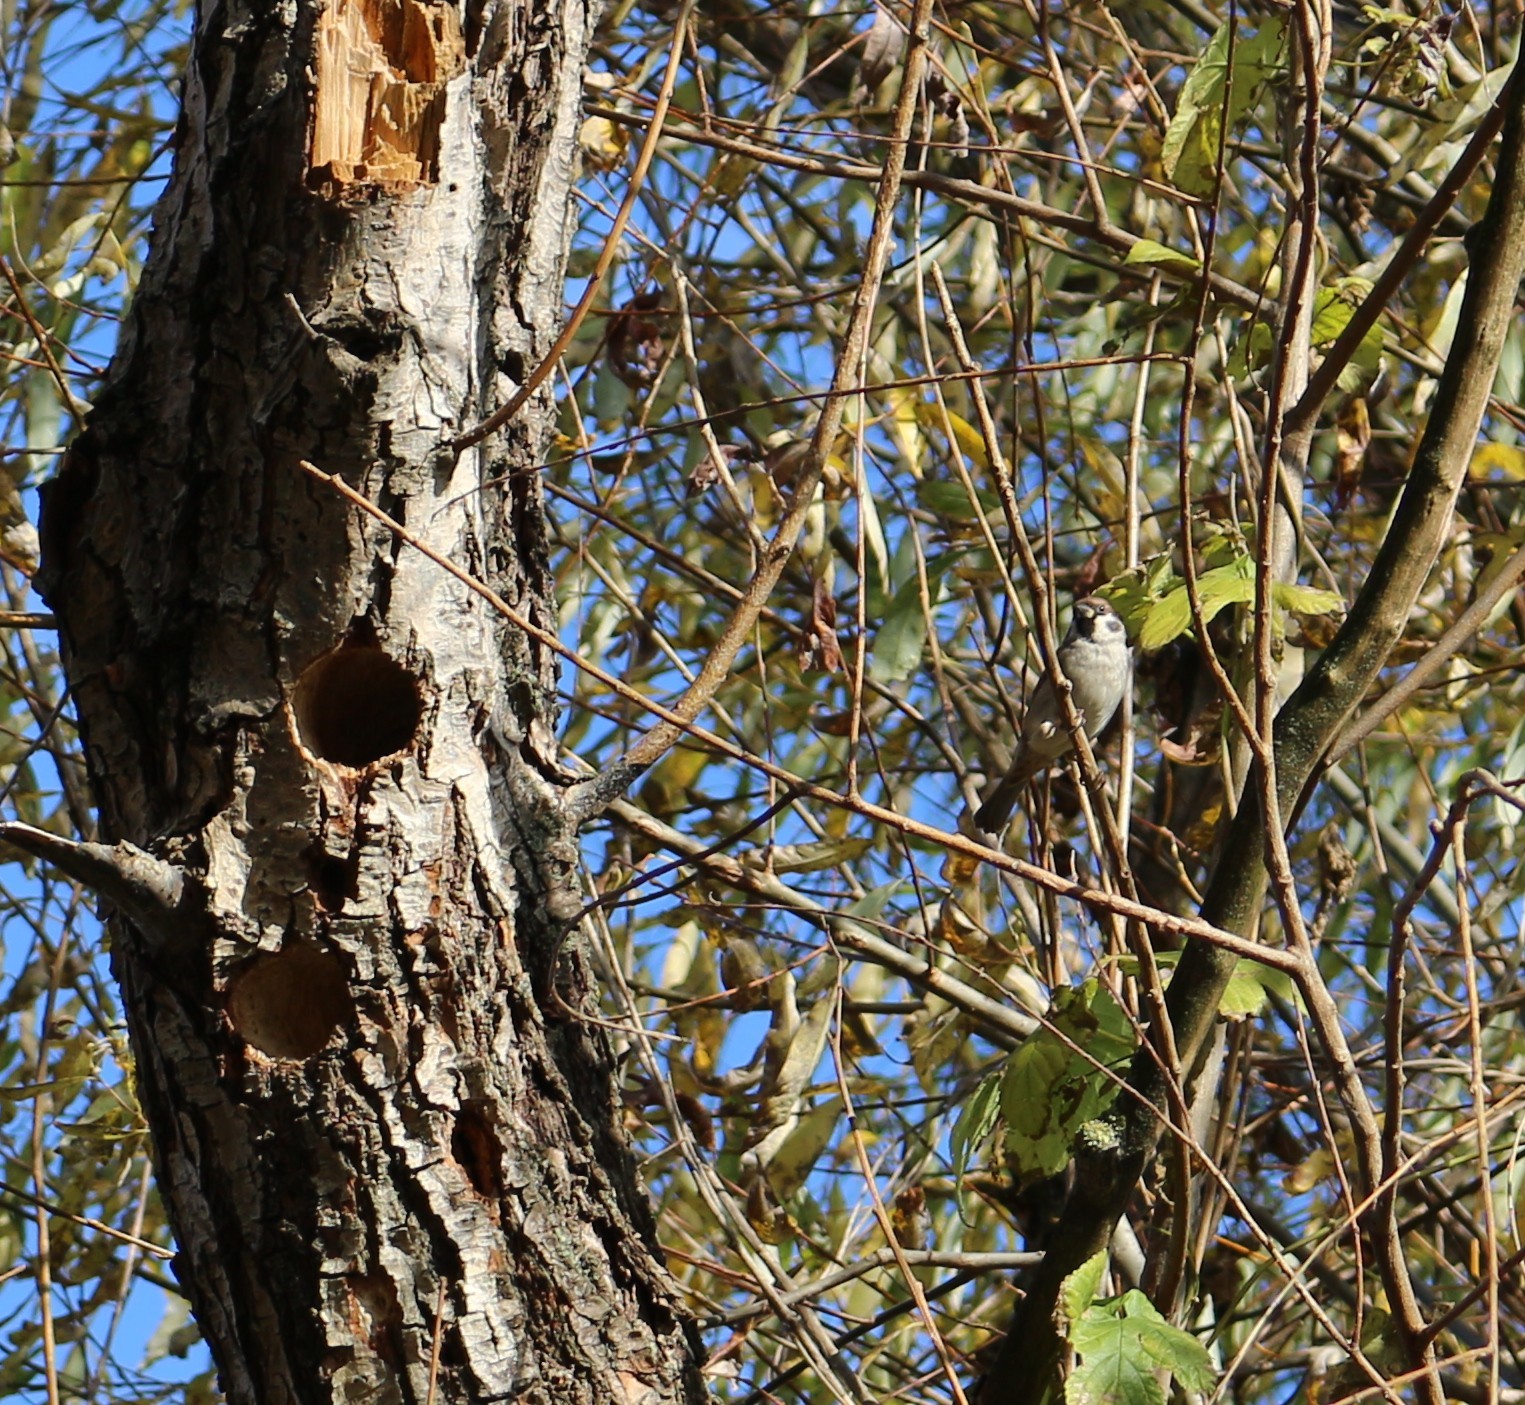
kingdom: Animalia
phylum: Chordata
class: Aves
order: Passeriformes
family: Passeridae
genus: Passer
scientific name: Passer montanus
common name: Eurasian tree sparrow
